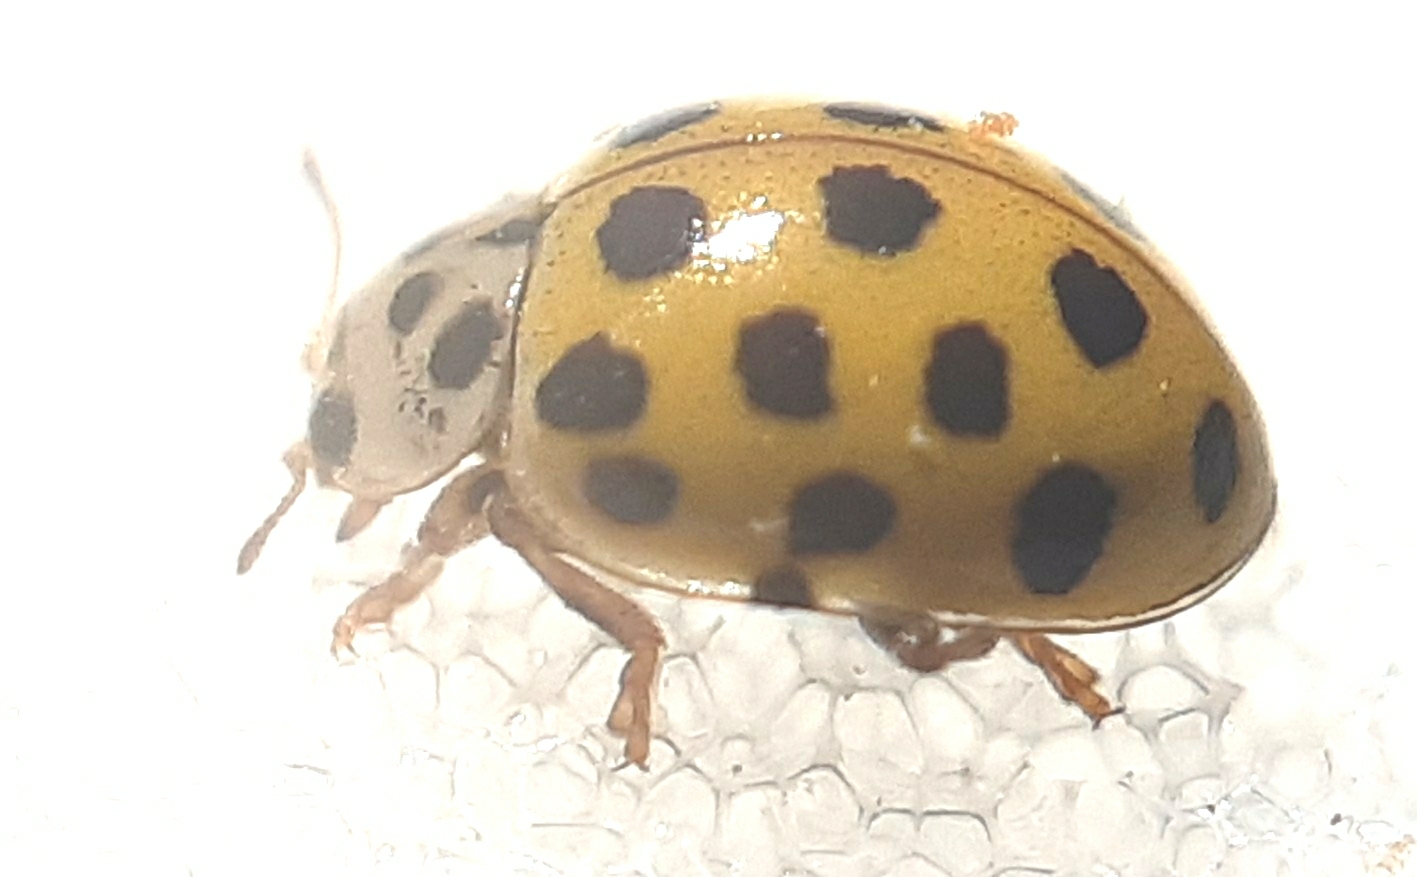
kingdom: Animalia
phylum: Arthropoda
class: Insecta
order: Coleoptera
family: Coccinellidae
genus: Psyllobora
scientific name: Psyllobora vigintiduopunctata
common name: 22-spot ladybird
